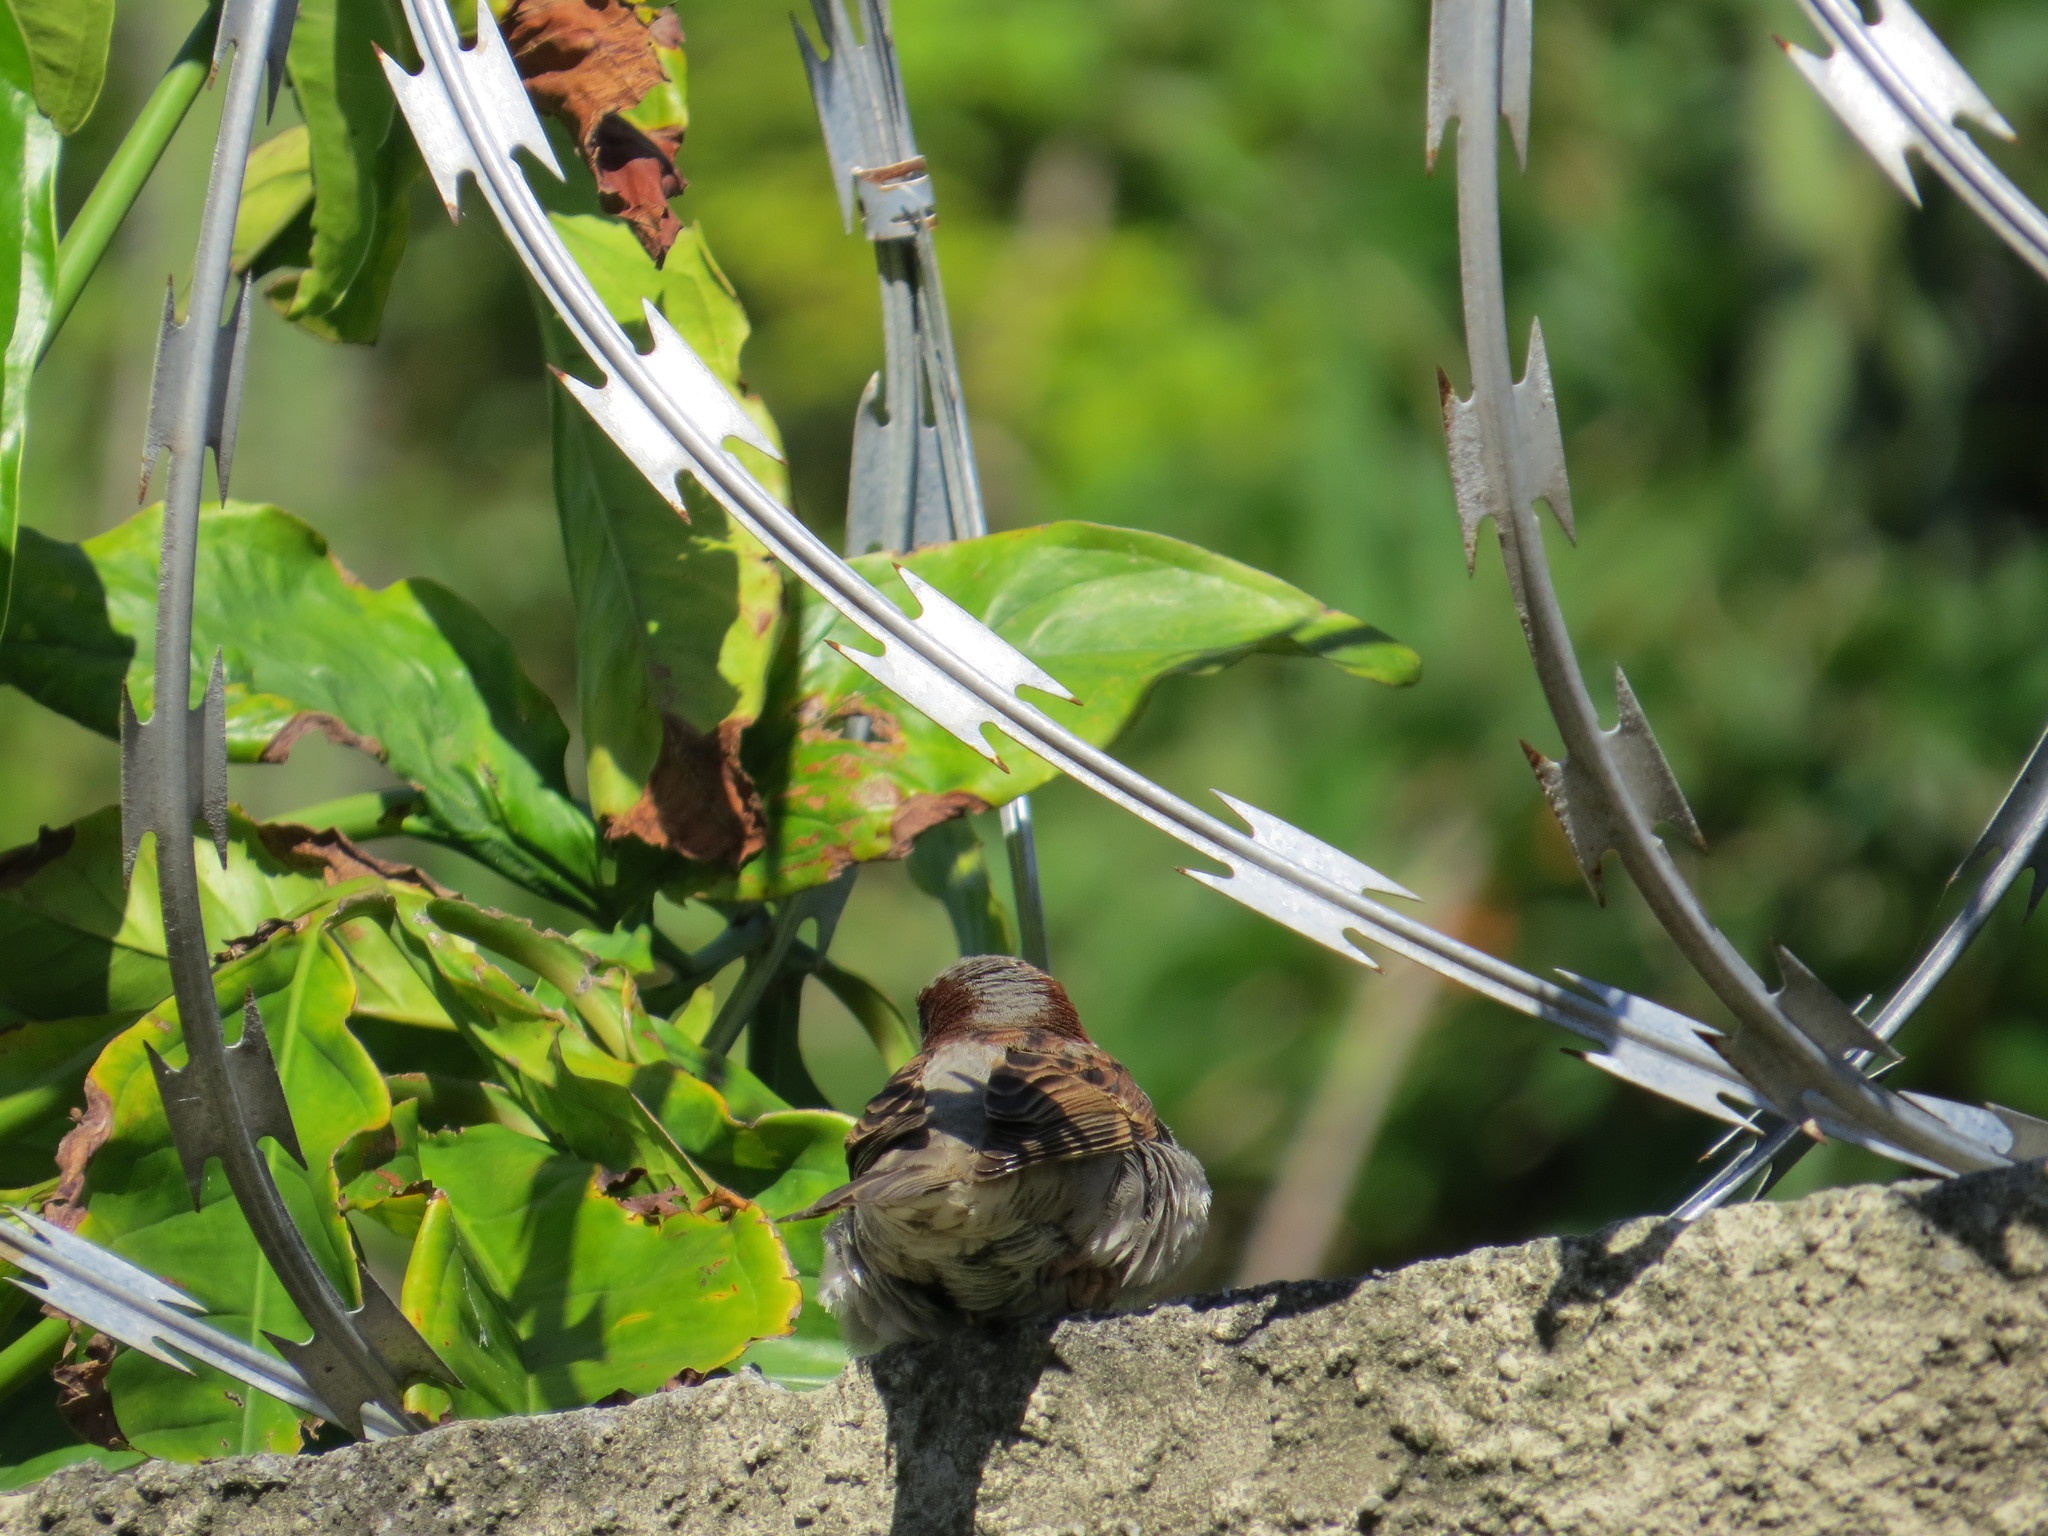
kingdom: Animalia
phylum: Chordata
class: Aves
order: Passeriformes
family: Passeridae
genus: Passer
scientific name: Passer domesticus
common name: House sparrow
